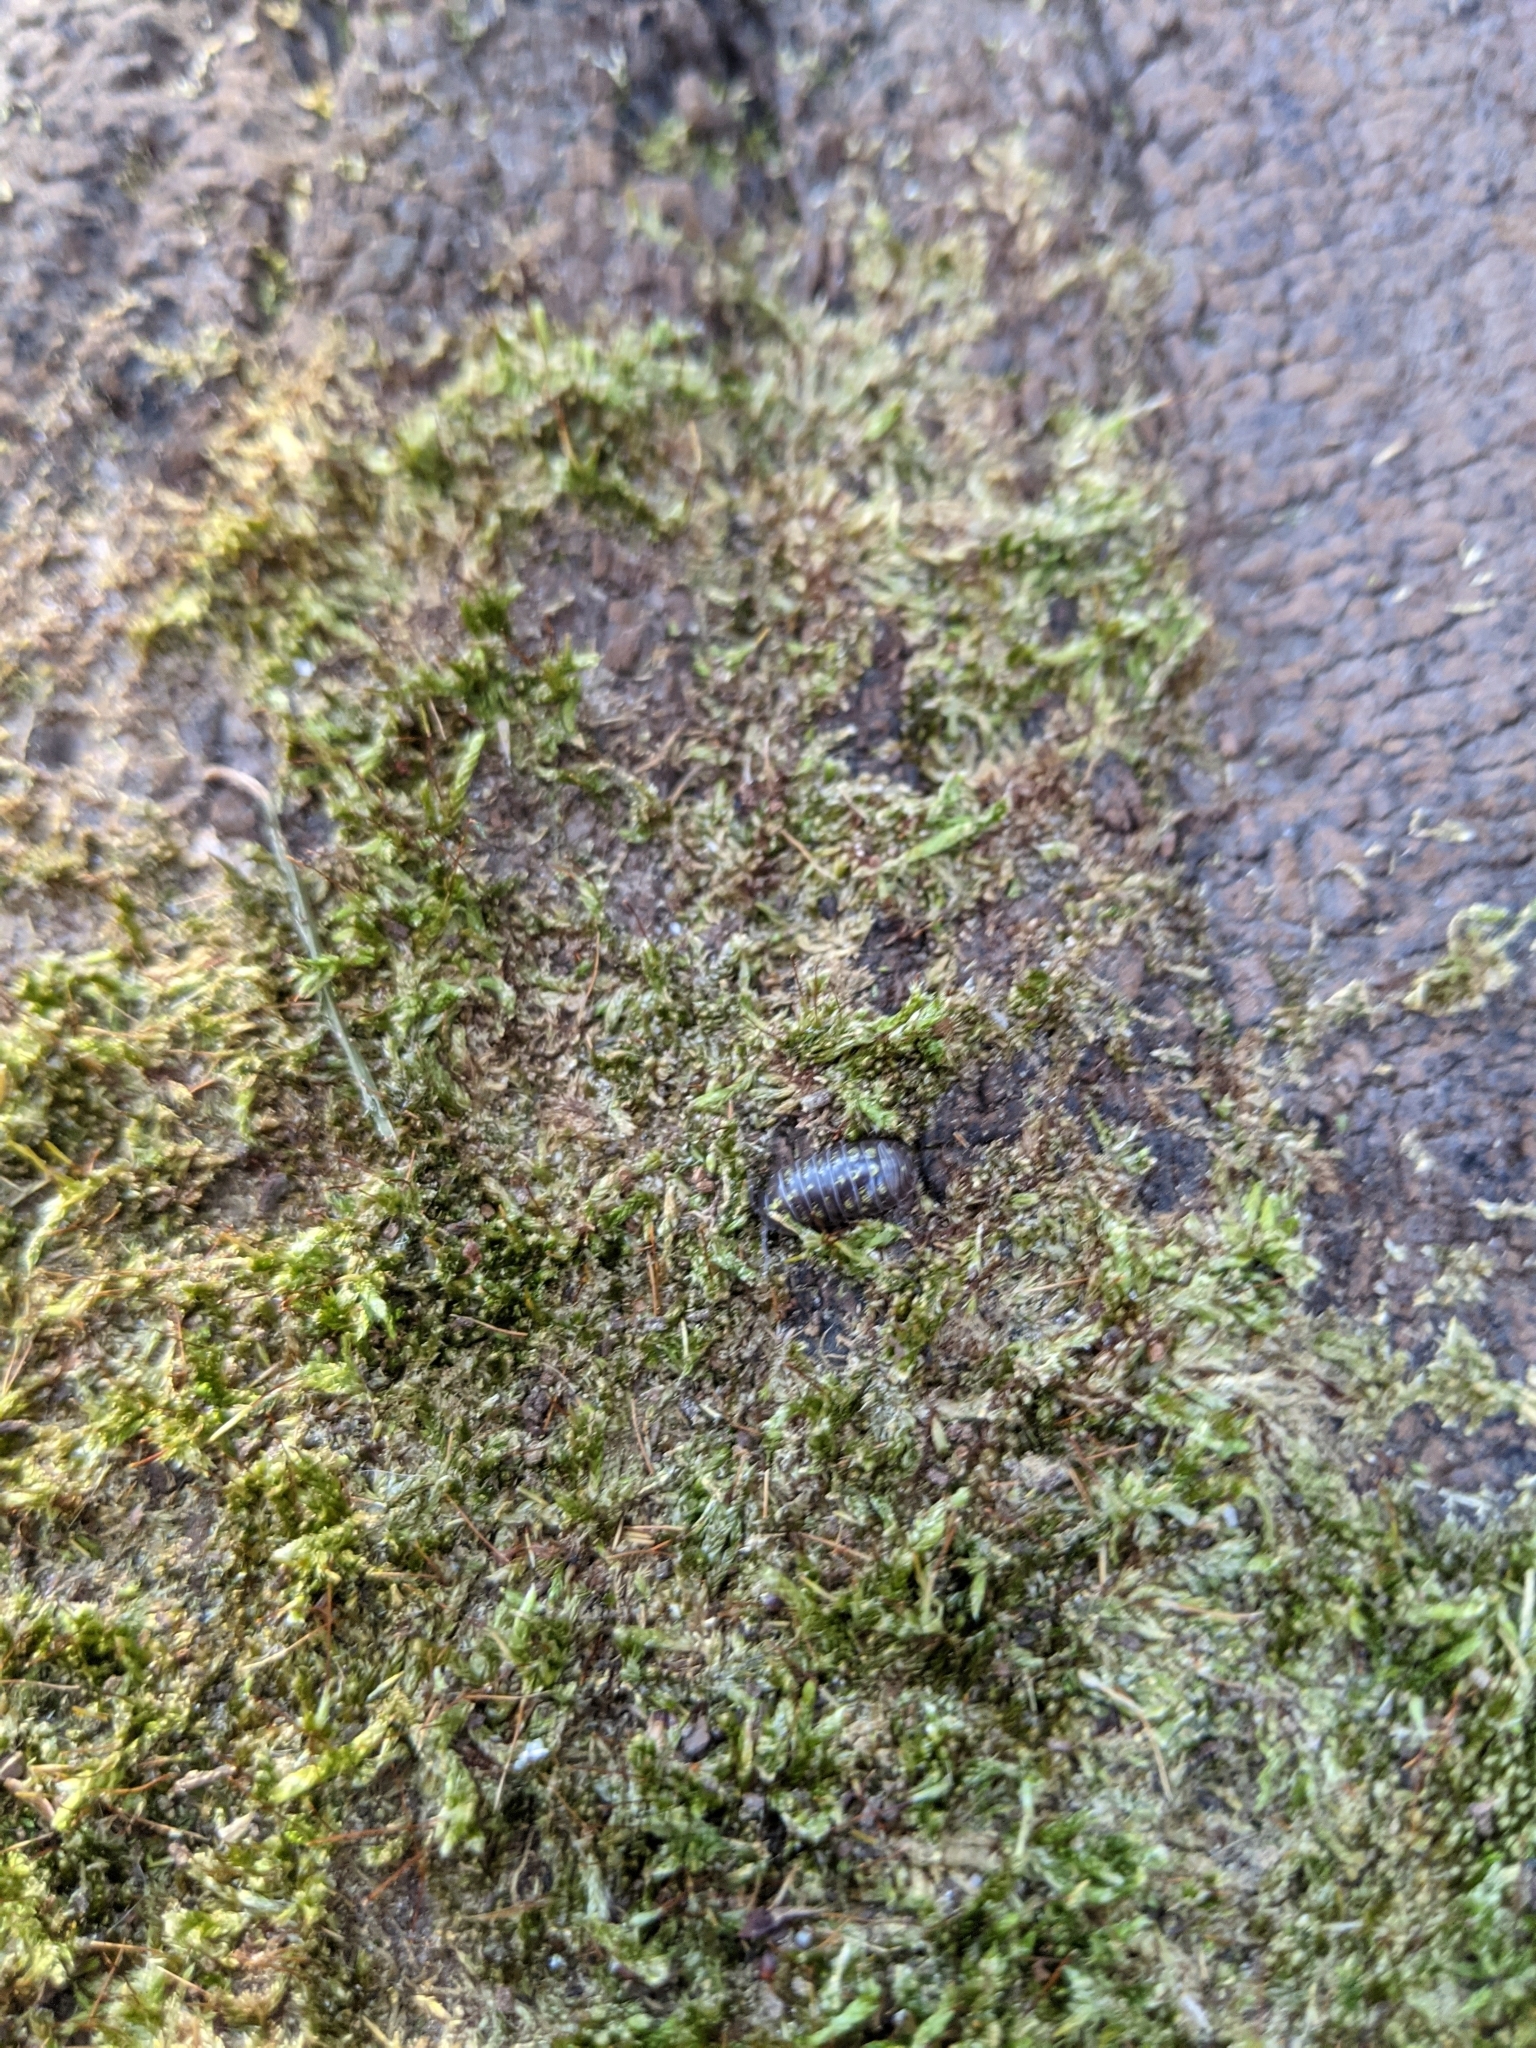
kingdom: Animalia
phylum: Arthropoda
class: Malacostraca
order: Isopoda
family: Armadillidiidae
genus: Armadillidium
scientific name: Armadillidium vulgare
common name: Common pill woodlouse
